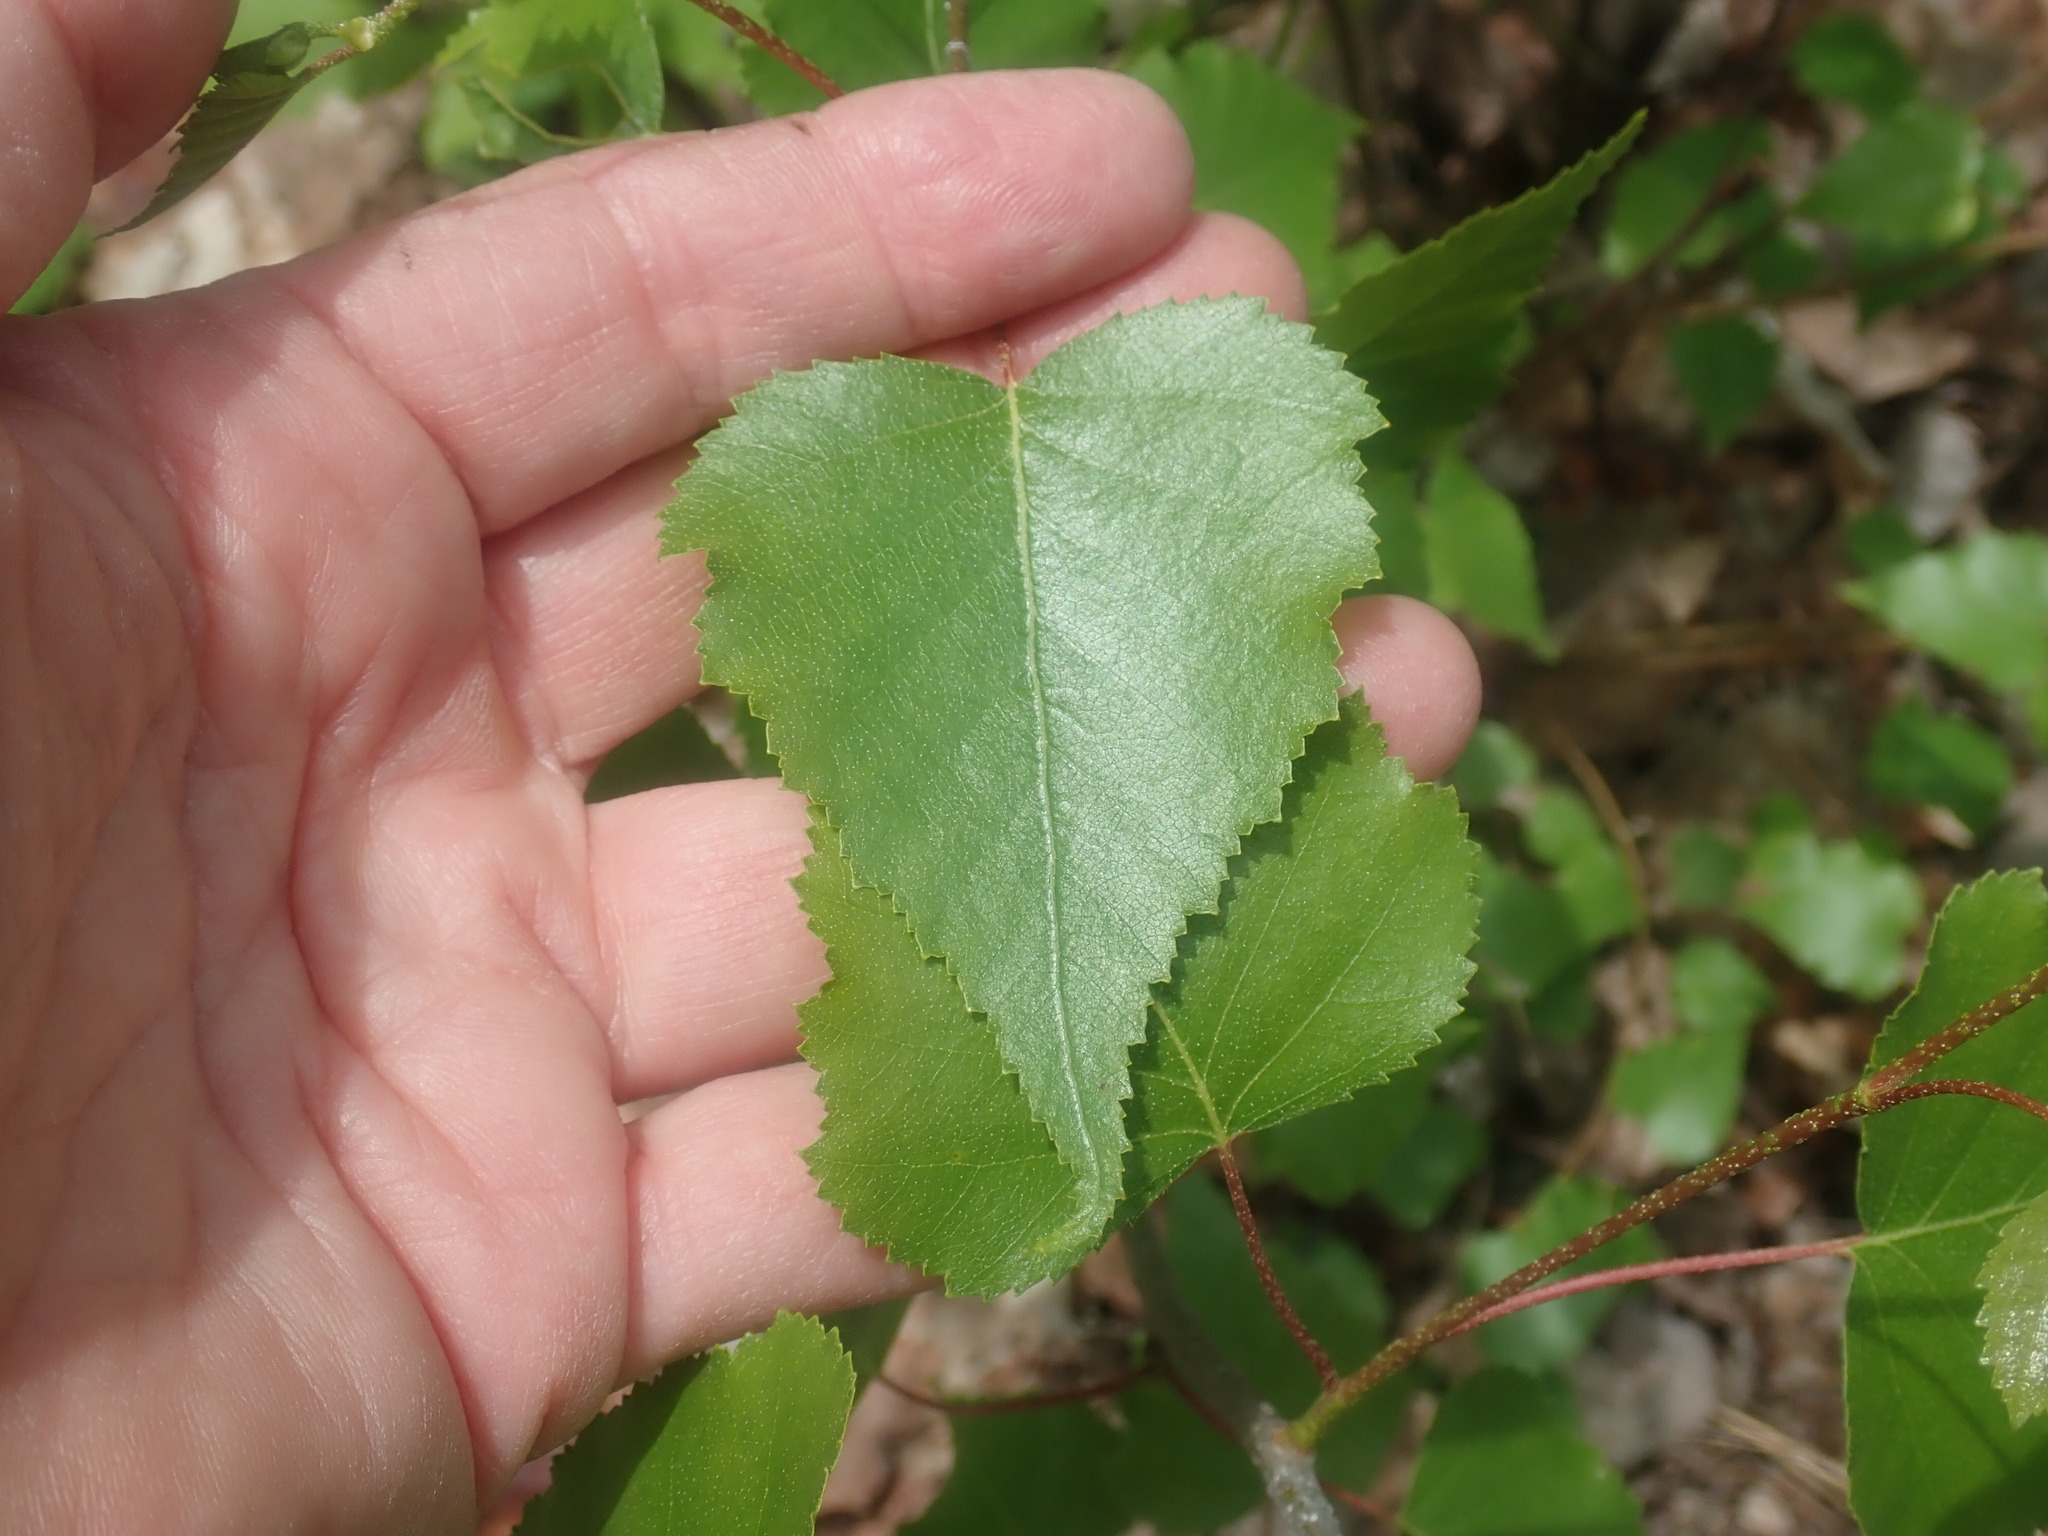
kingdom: Plantae
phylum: Tracheophyta
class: Magnoliopsida
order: Fagales
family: Betulaceae
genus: Betula
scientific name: Betula populifolia
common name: Fire birch
